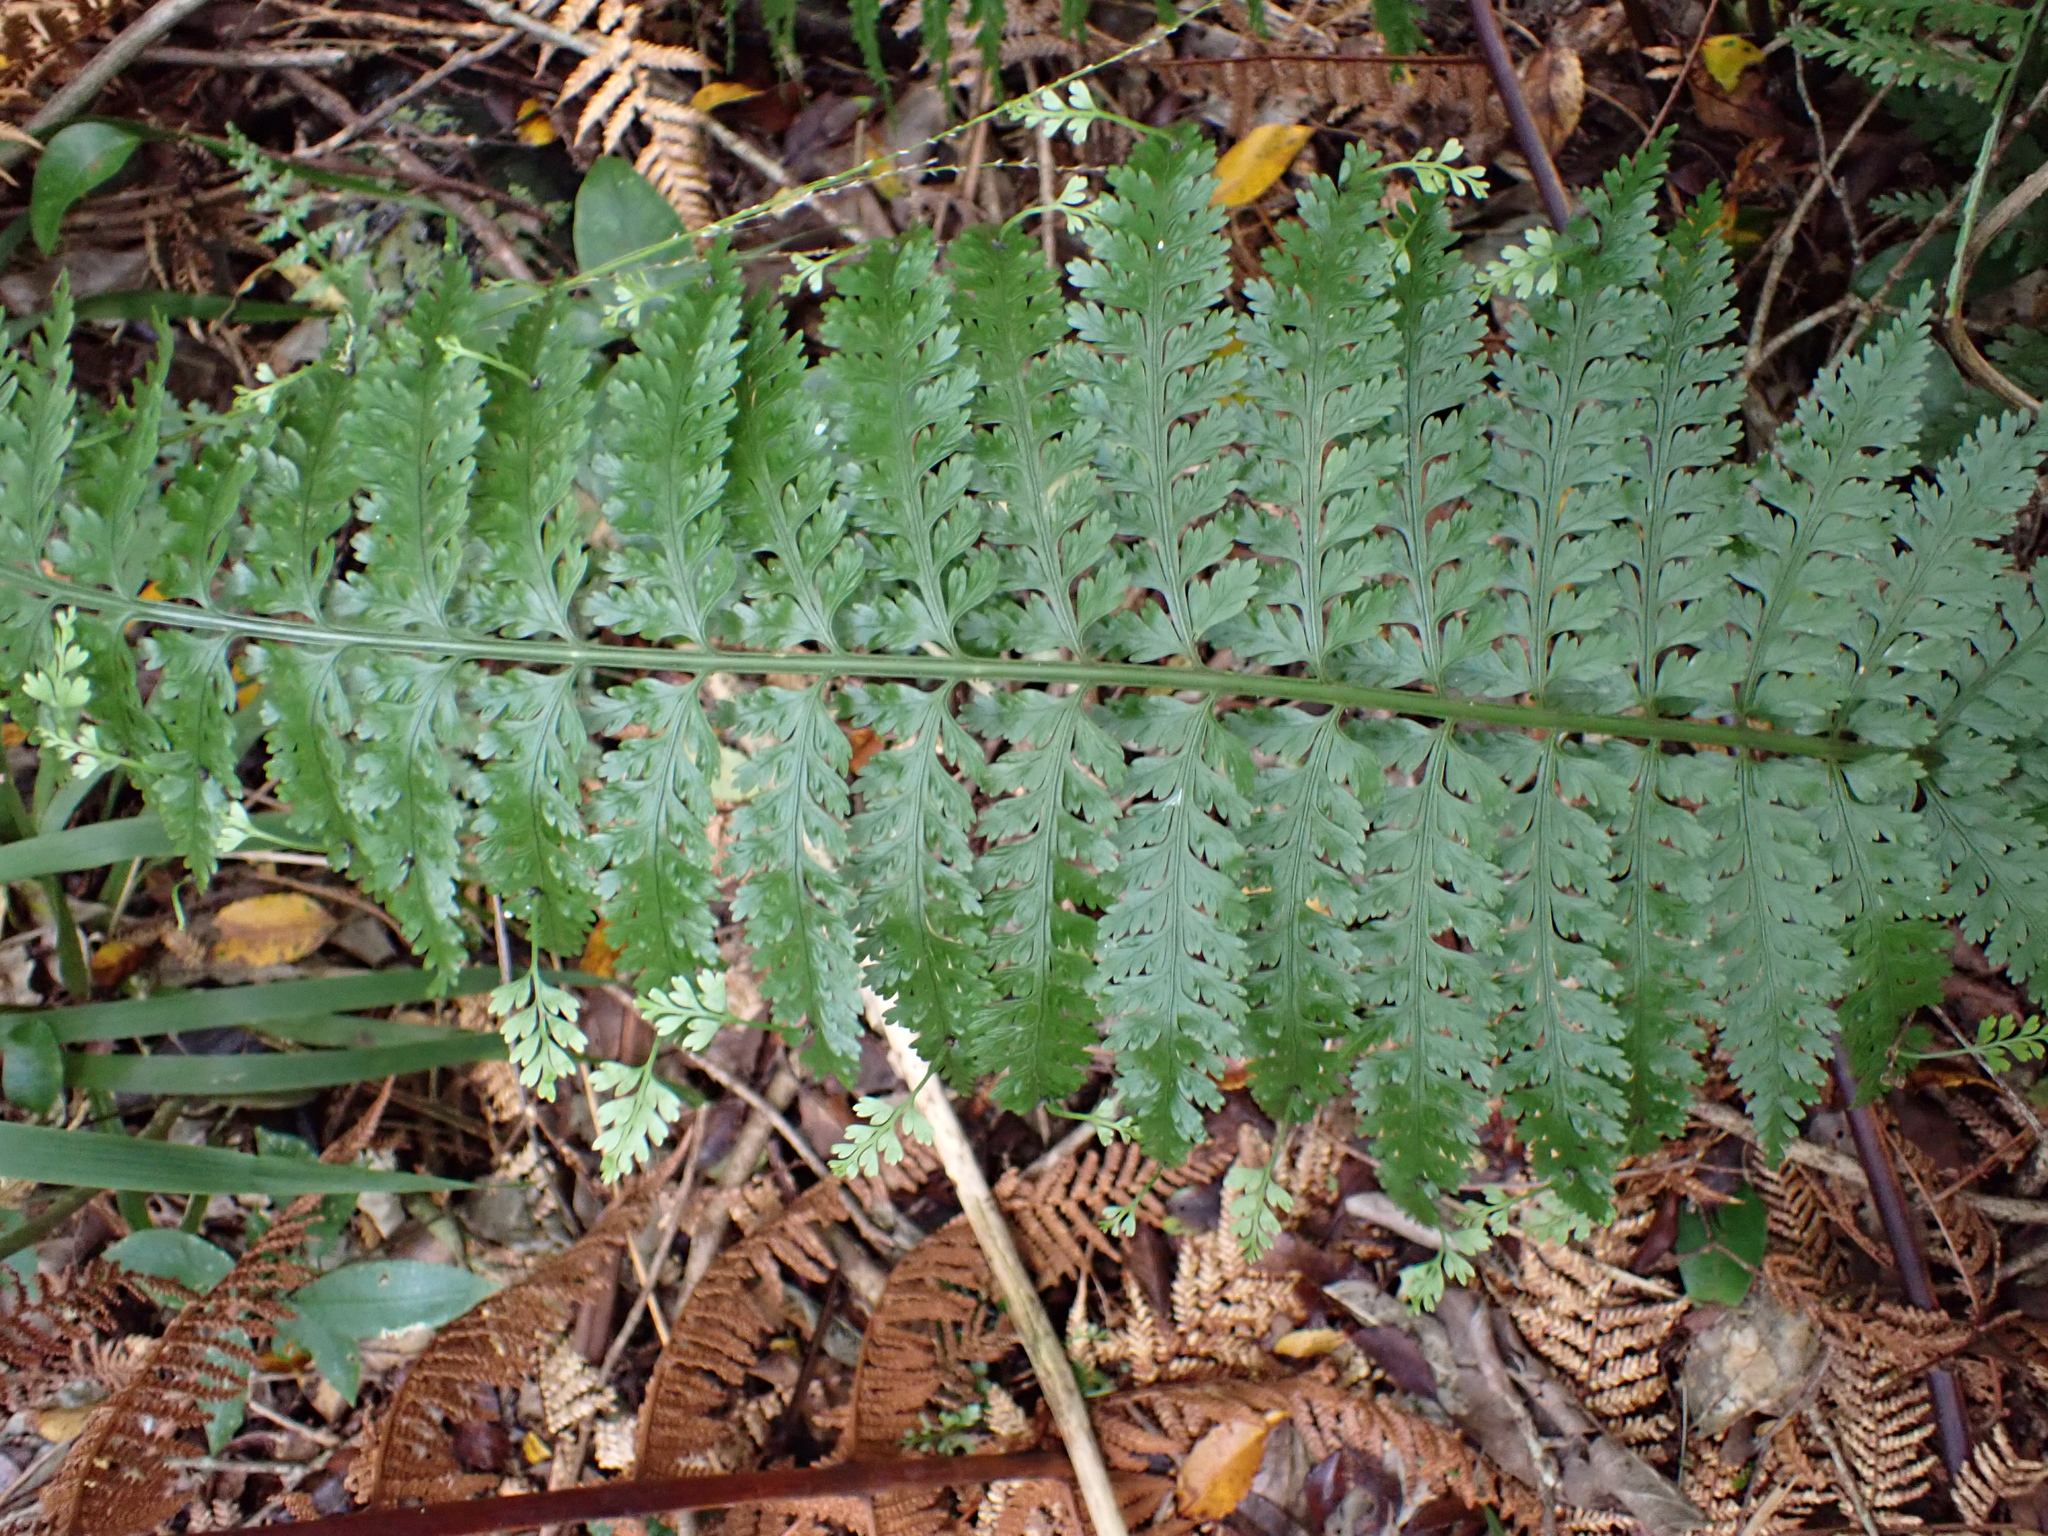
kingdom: Plantae
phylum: Tracheophyta
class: Polypodiopsida
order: Polypodiales
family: Aspleniaceae
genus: Asplenium
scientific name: Asplenium bulbiferum
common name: Mother fern
